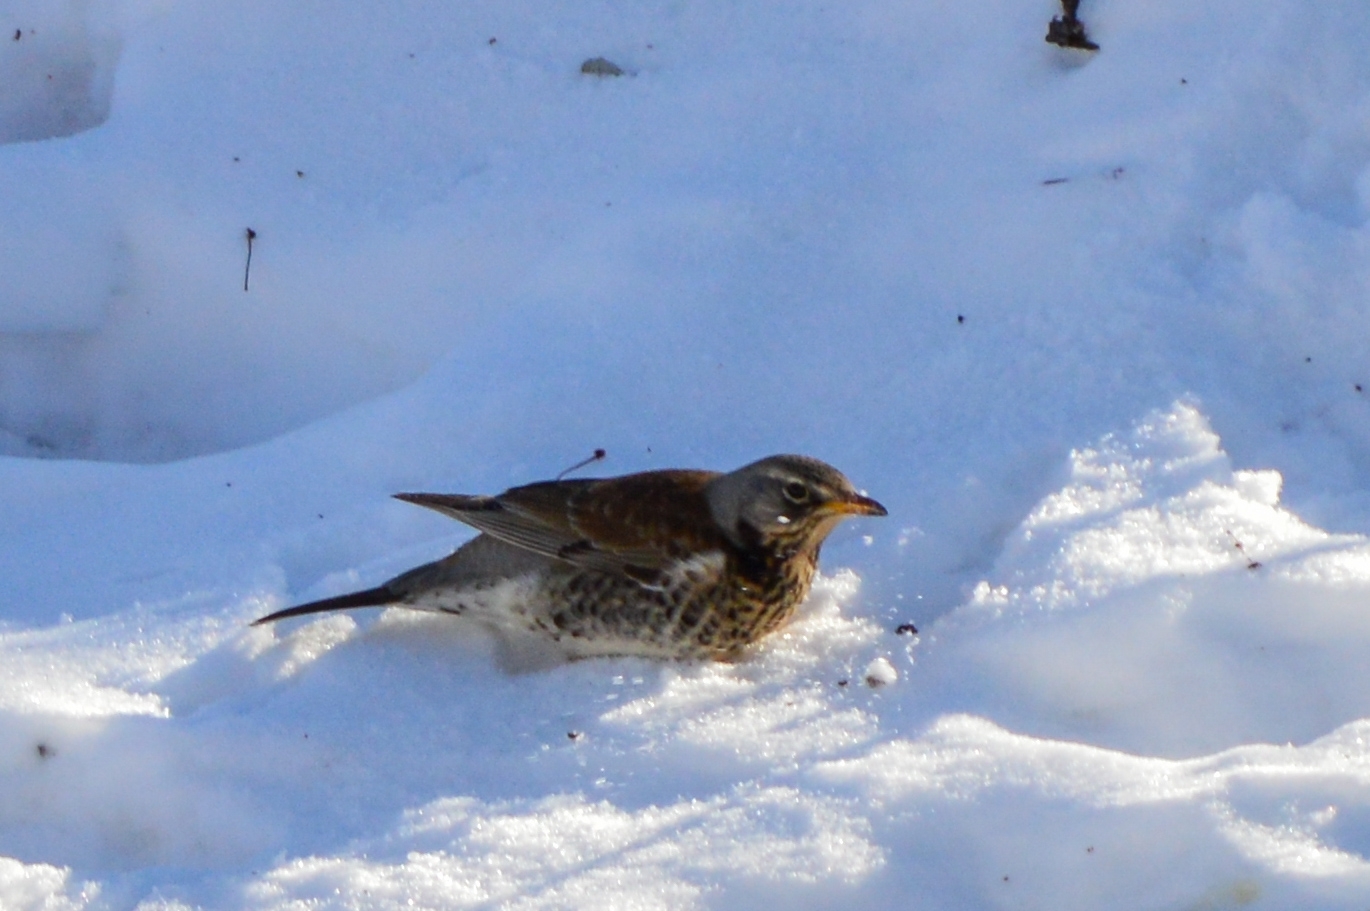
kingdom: Animalia
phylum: Chordata
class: Aves
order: Passeriformes
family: Turdidae
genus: Turdus
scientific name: Turdus pilaris
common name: Fieldfare
